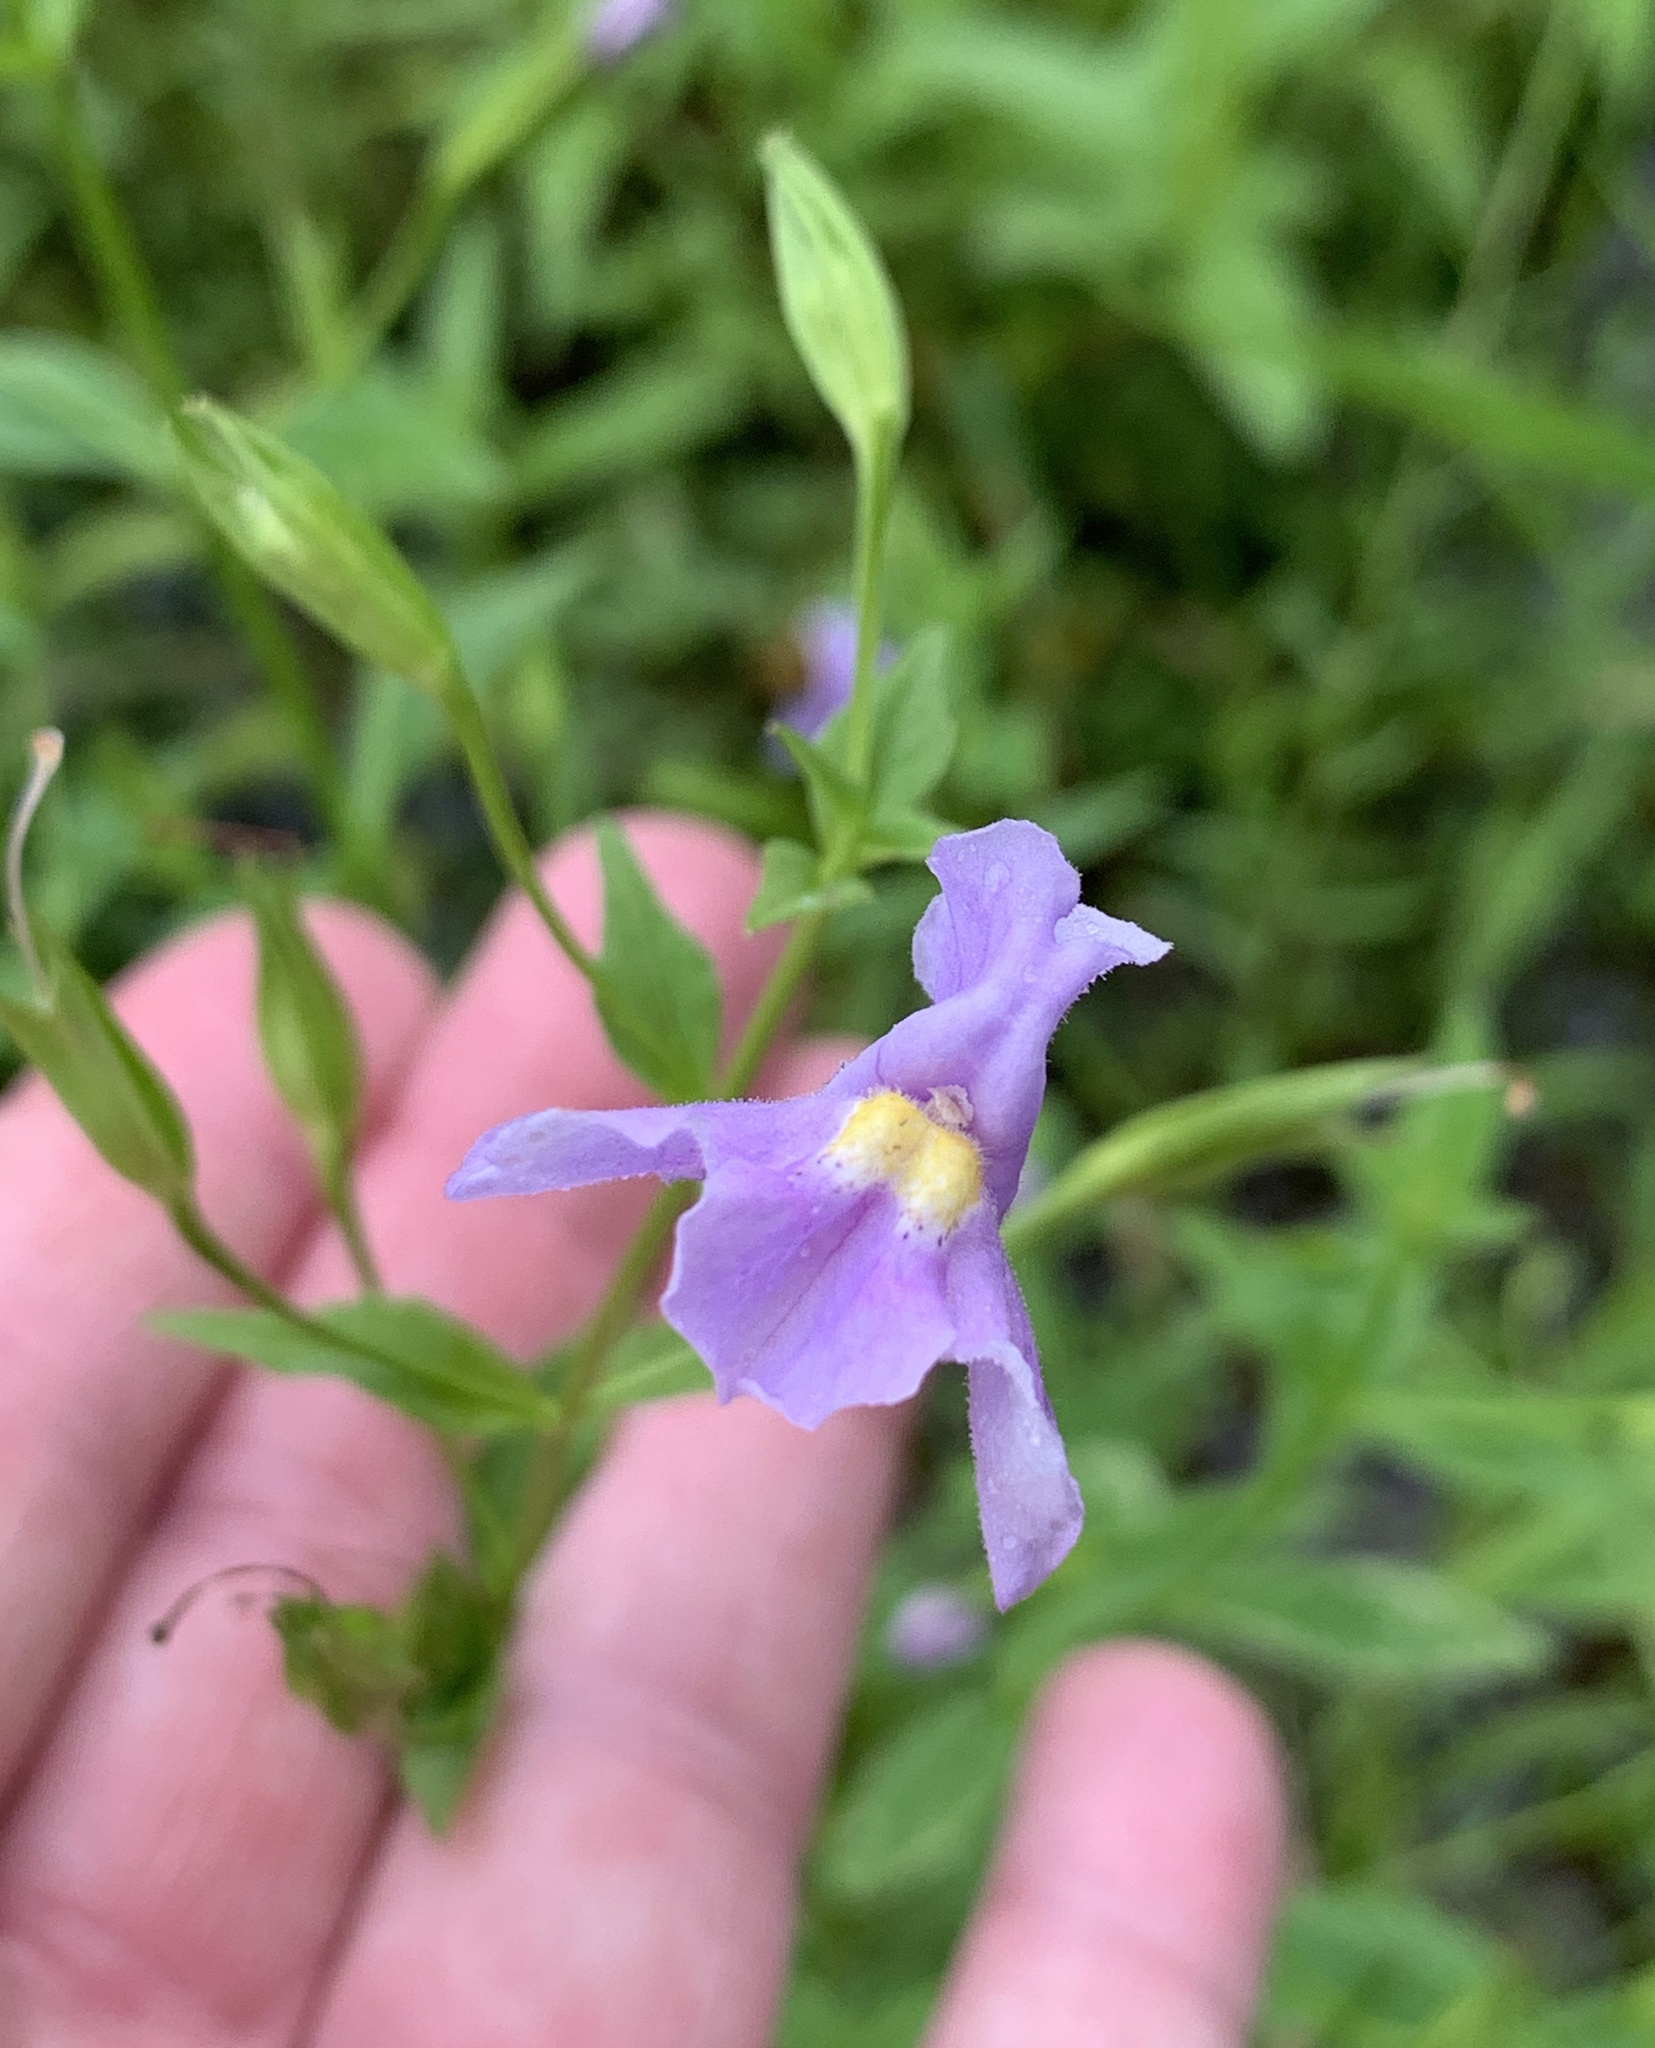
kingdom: Plantae
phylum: Tracheophyta
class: Magnoliopsida
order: Lamiales
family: Phrymaceae
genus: Mimulus
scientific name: Mimulus ringens
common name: Allegheny monkeyflower
